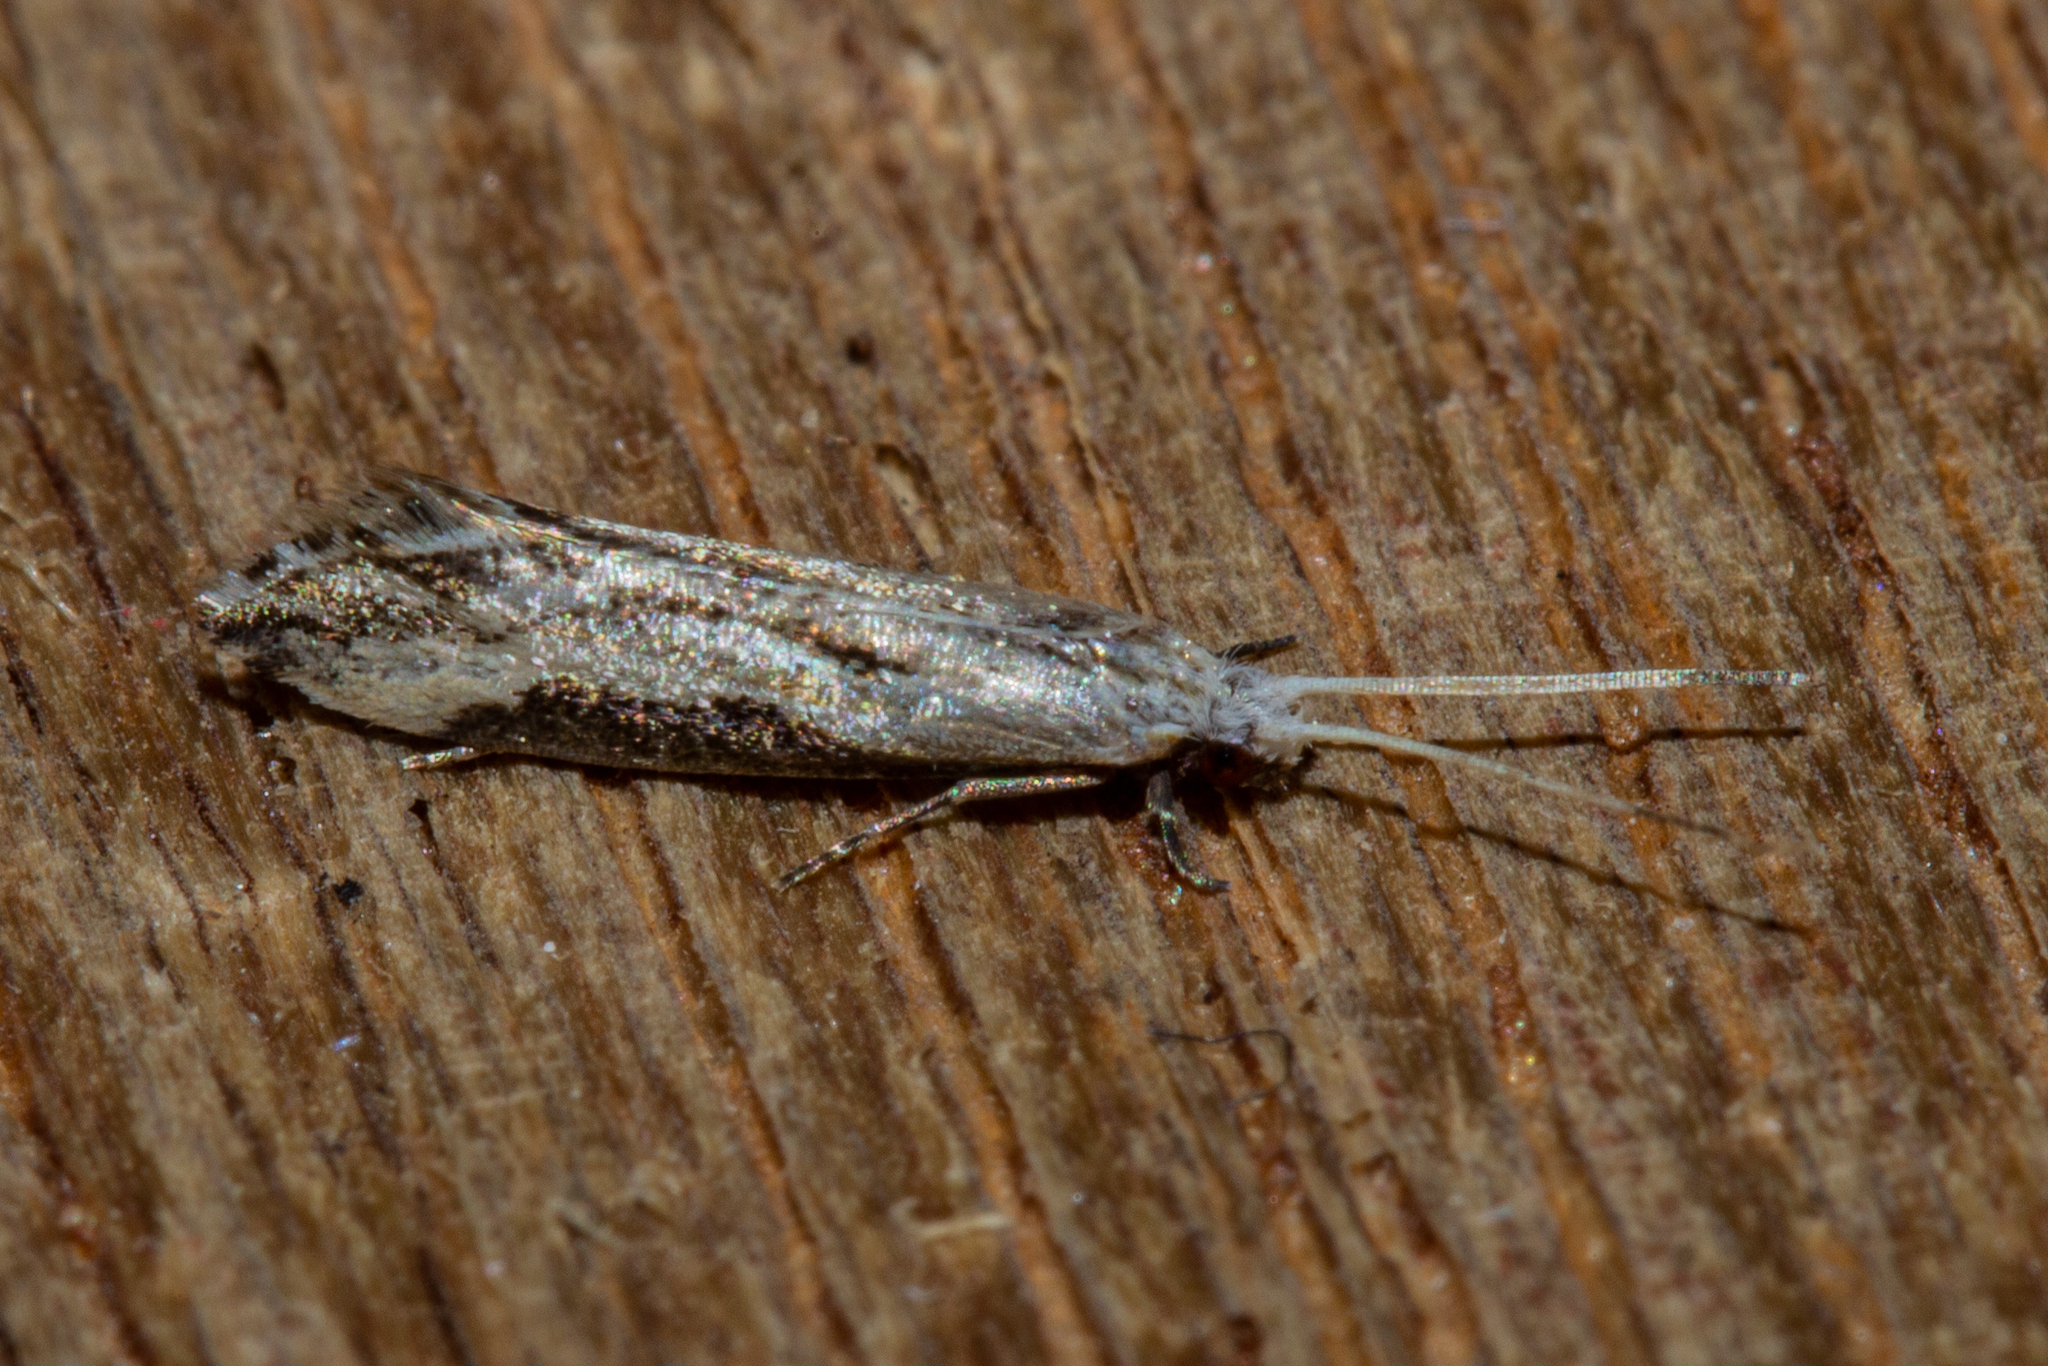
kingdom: Animalia
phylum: Arthropoda
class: Insecta
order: Lepidoptera
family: Tineidae
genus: Sagephora
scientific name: Sagephora phortegella
